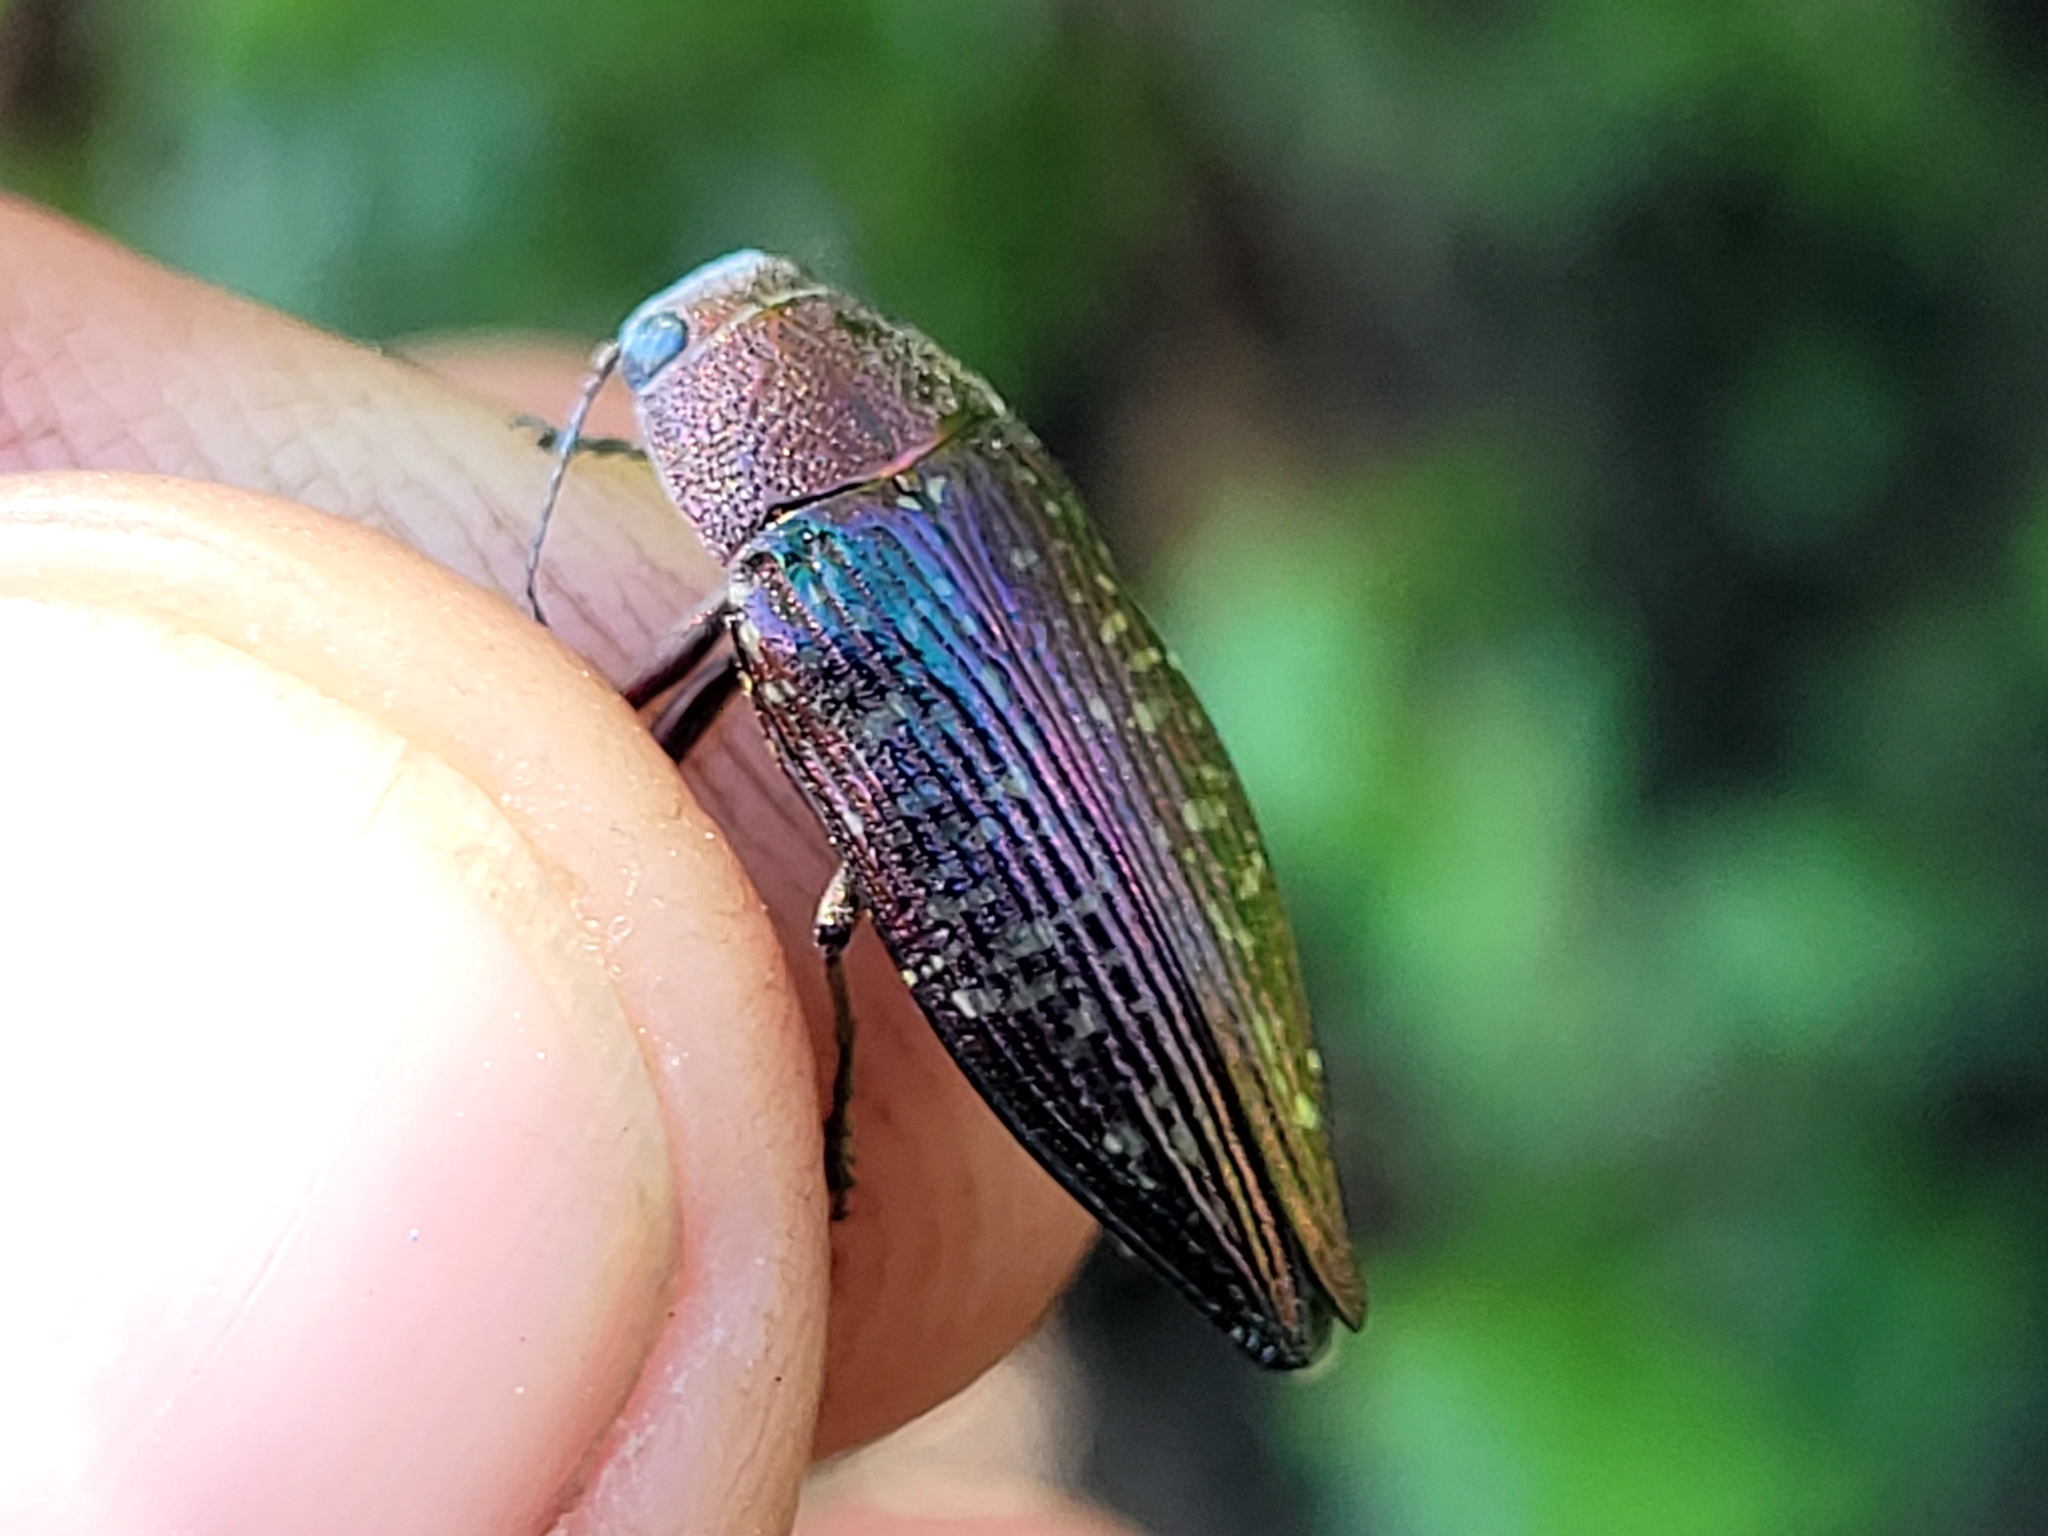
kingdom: Animalia
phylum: Arthropoda
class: Insecta
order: Coleoptera
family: Buprestidae
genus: Buprestis
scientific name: Buprestis confluenta
